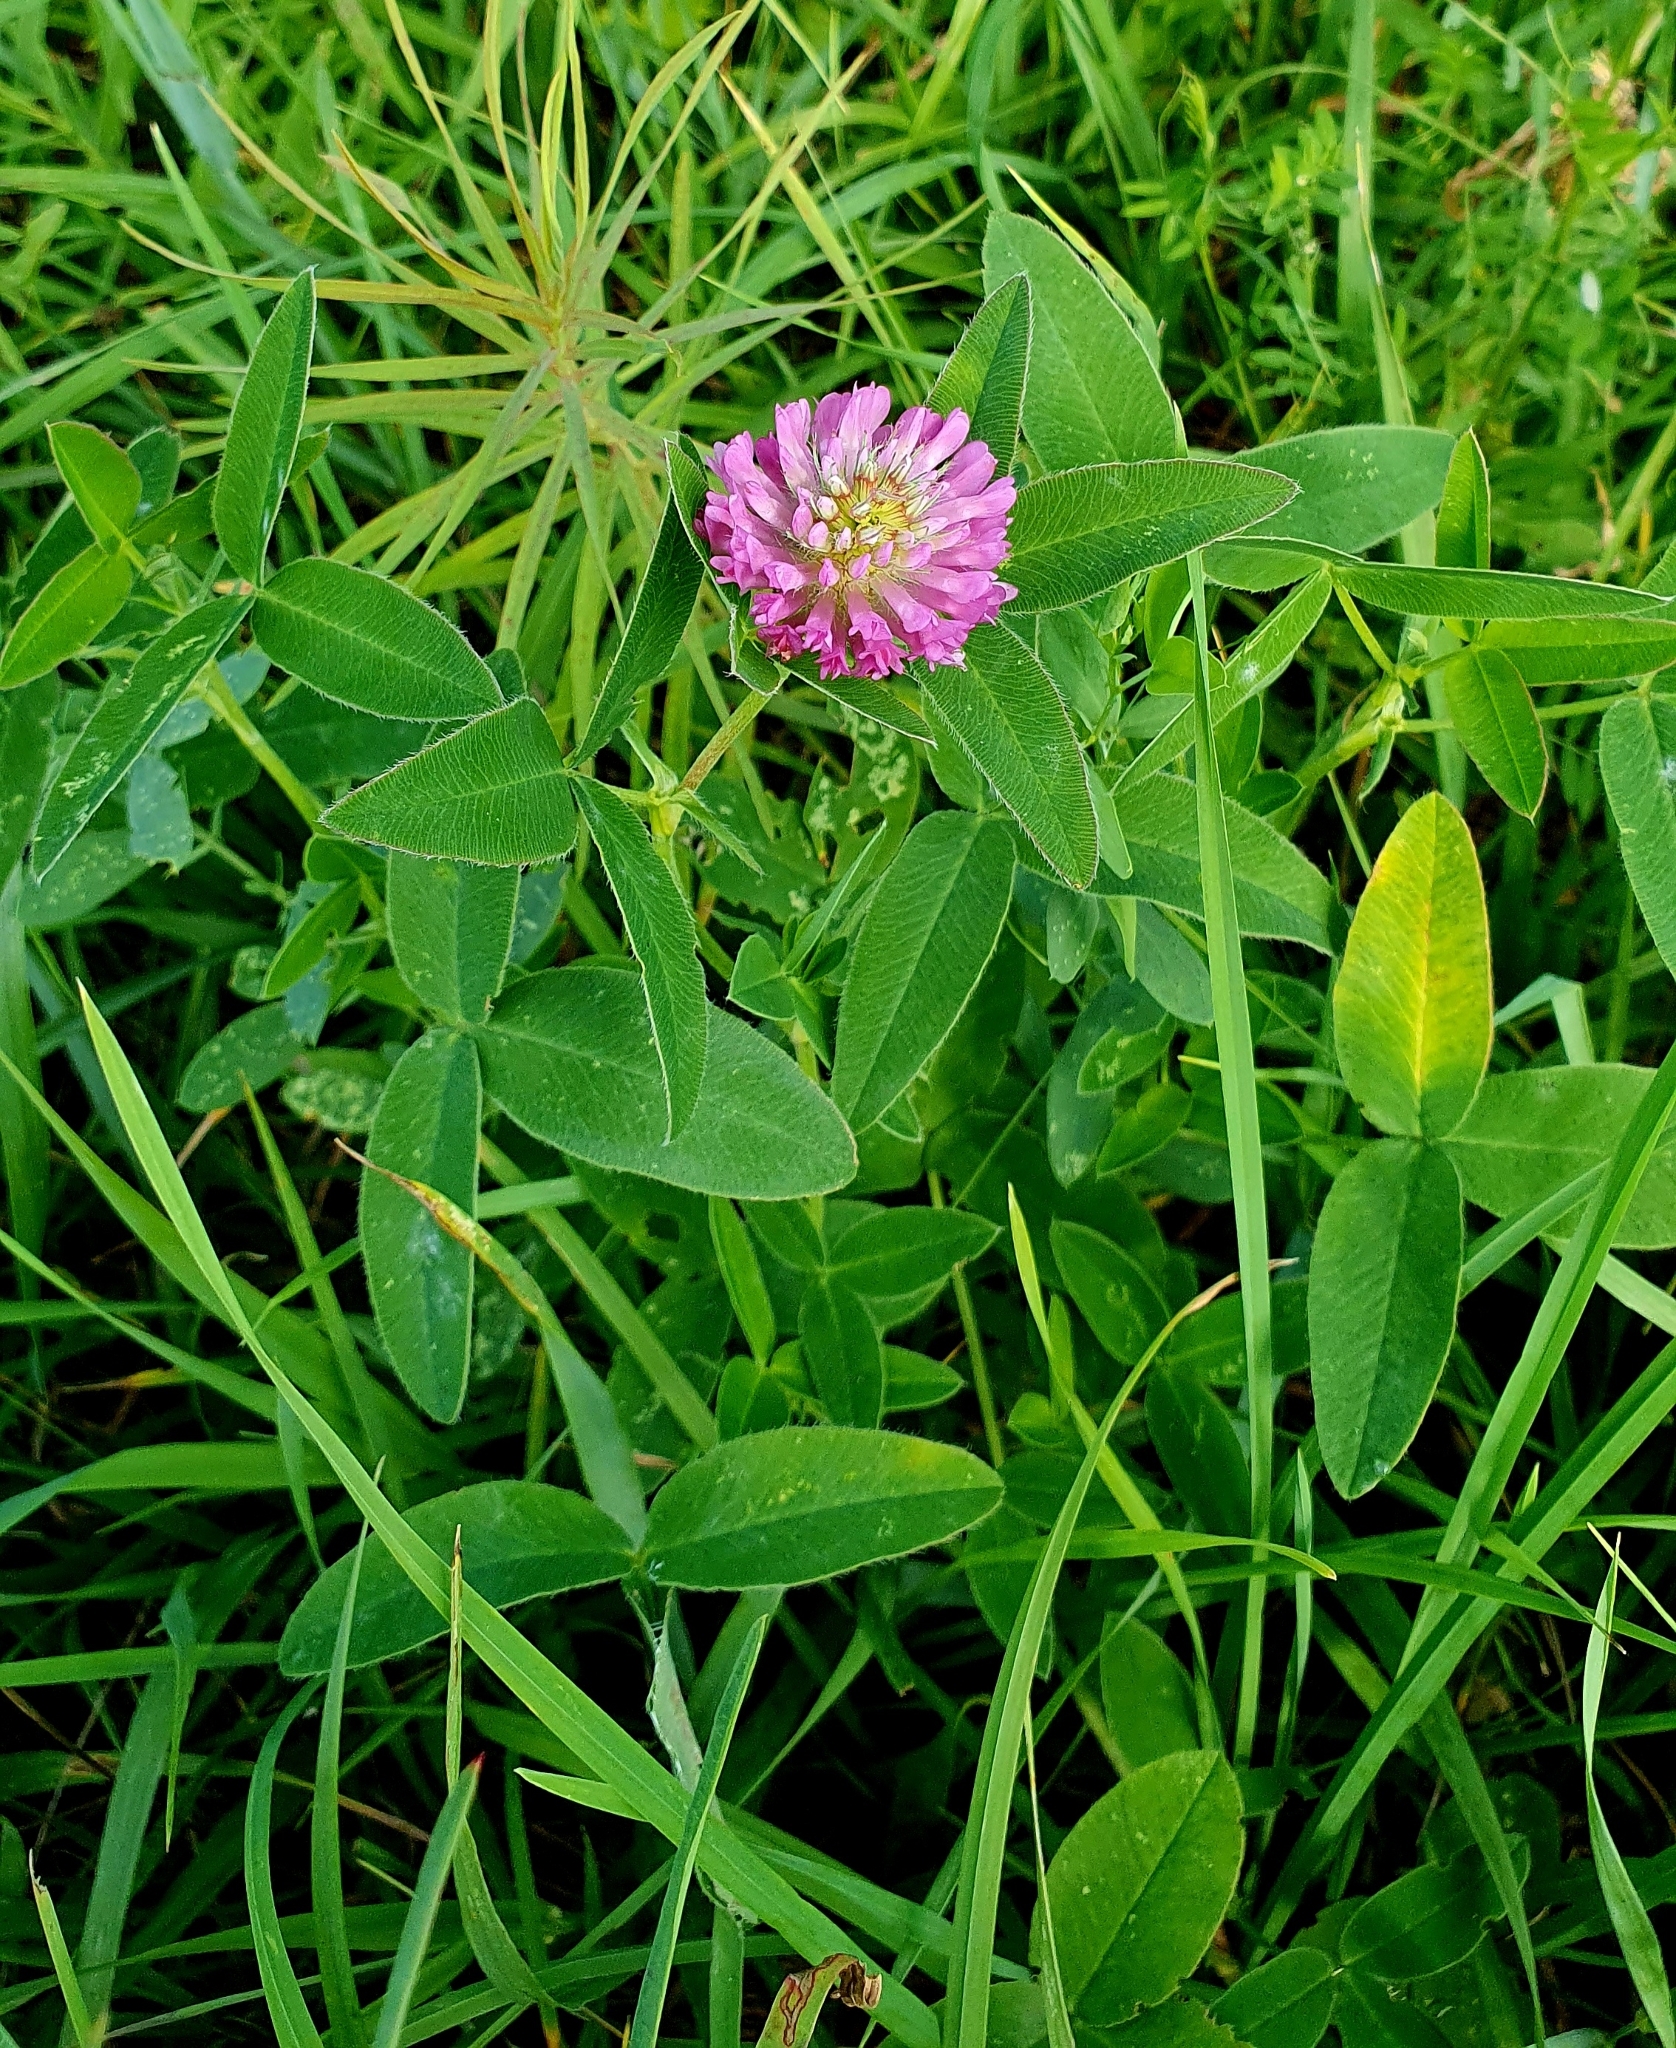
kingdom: Plantae
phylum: Tracheophyta
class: Magnoliopsida
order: Fabales
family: Fabaceae
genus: Trifolium
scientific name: Trifolium medium
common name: Zigzag clover
